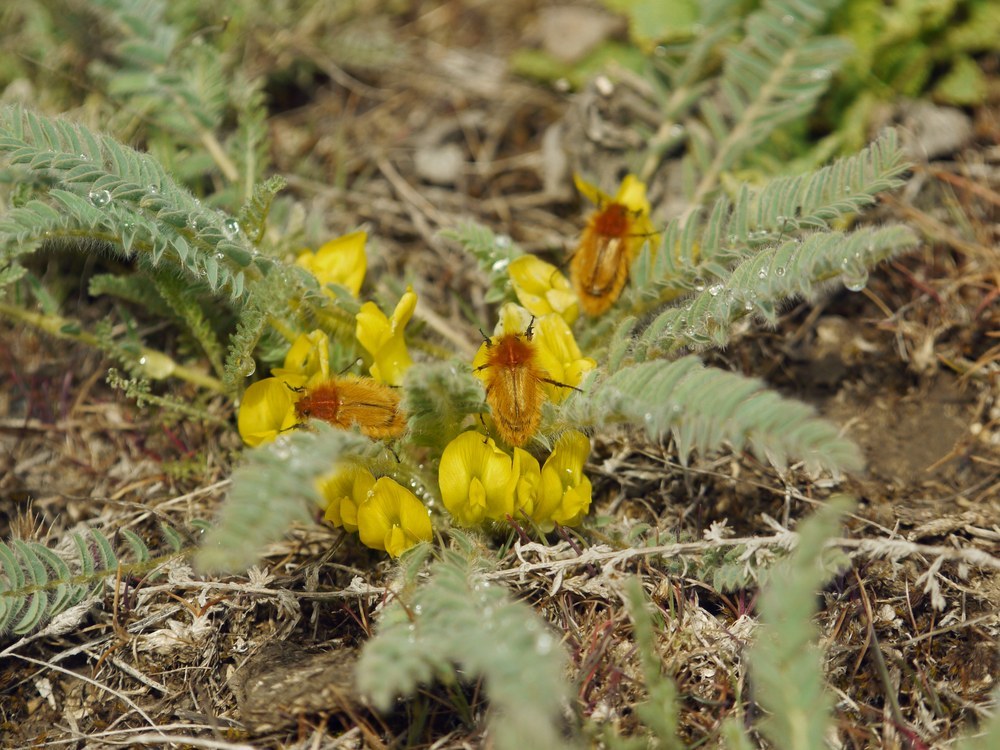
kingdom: Plantae
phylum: Tracheophyta
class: Magnoliopsida
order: Fabales
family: Fabaceae
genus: Astragalus
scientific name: Astragalus buchtormensis
